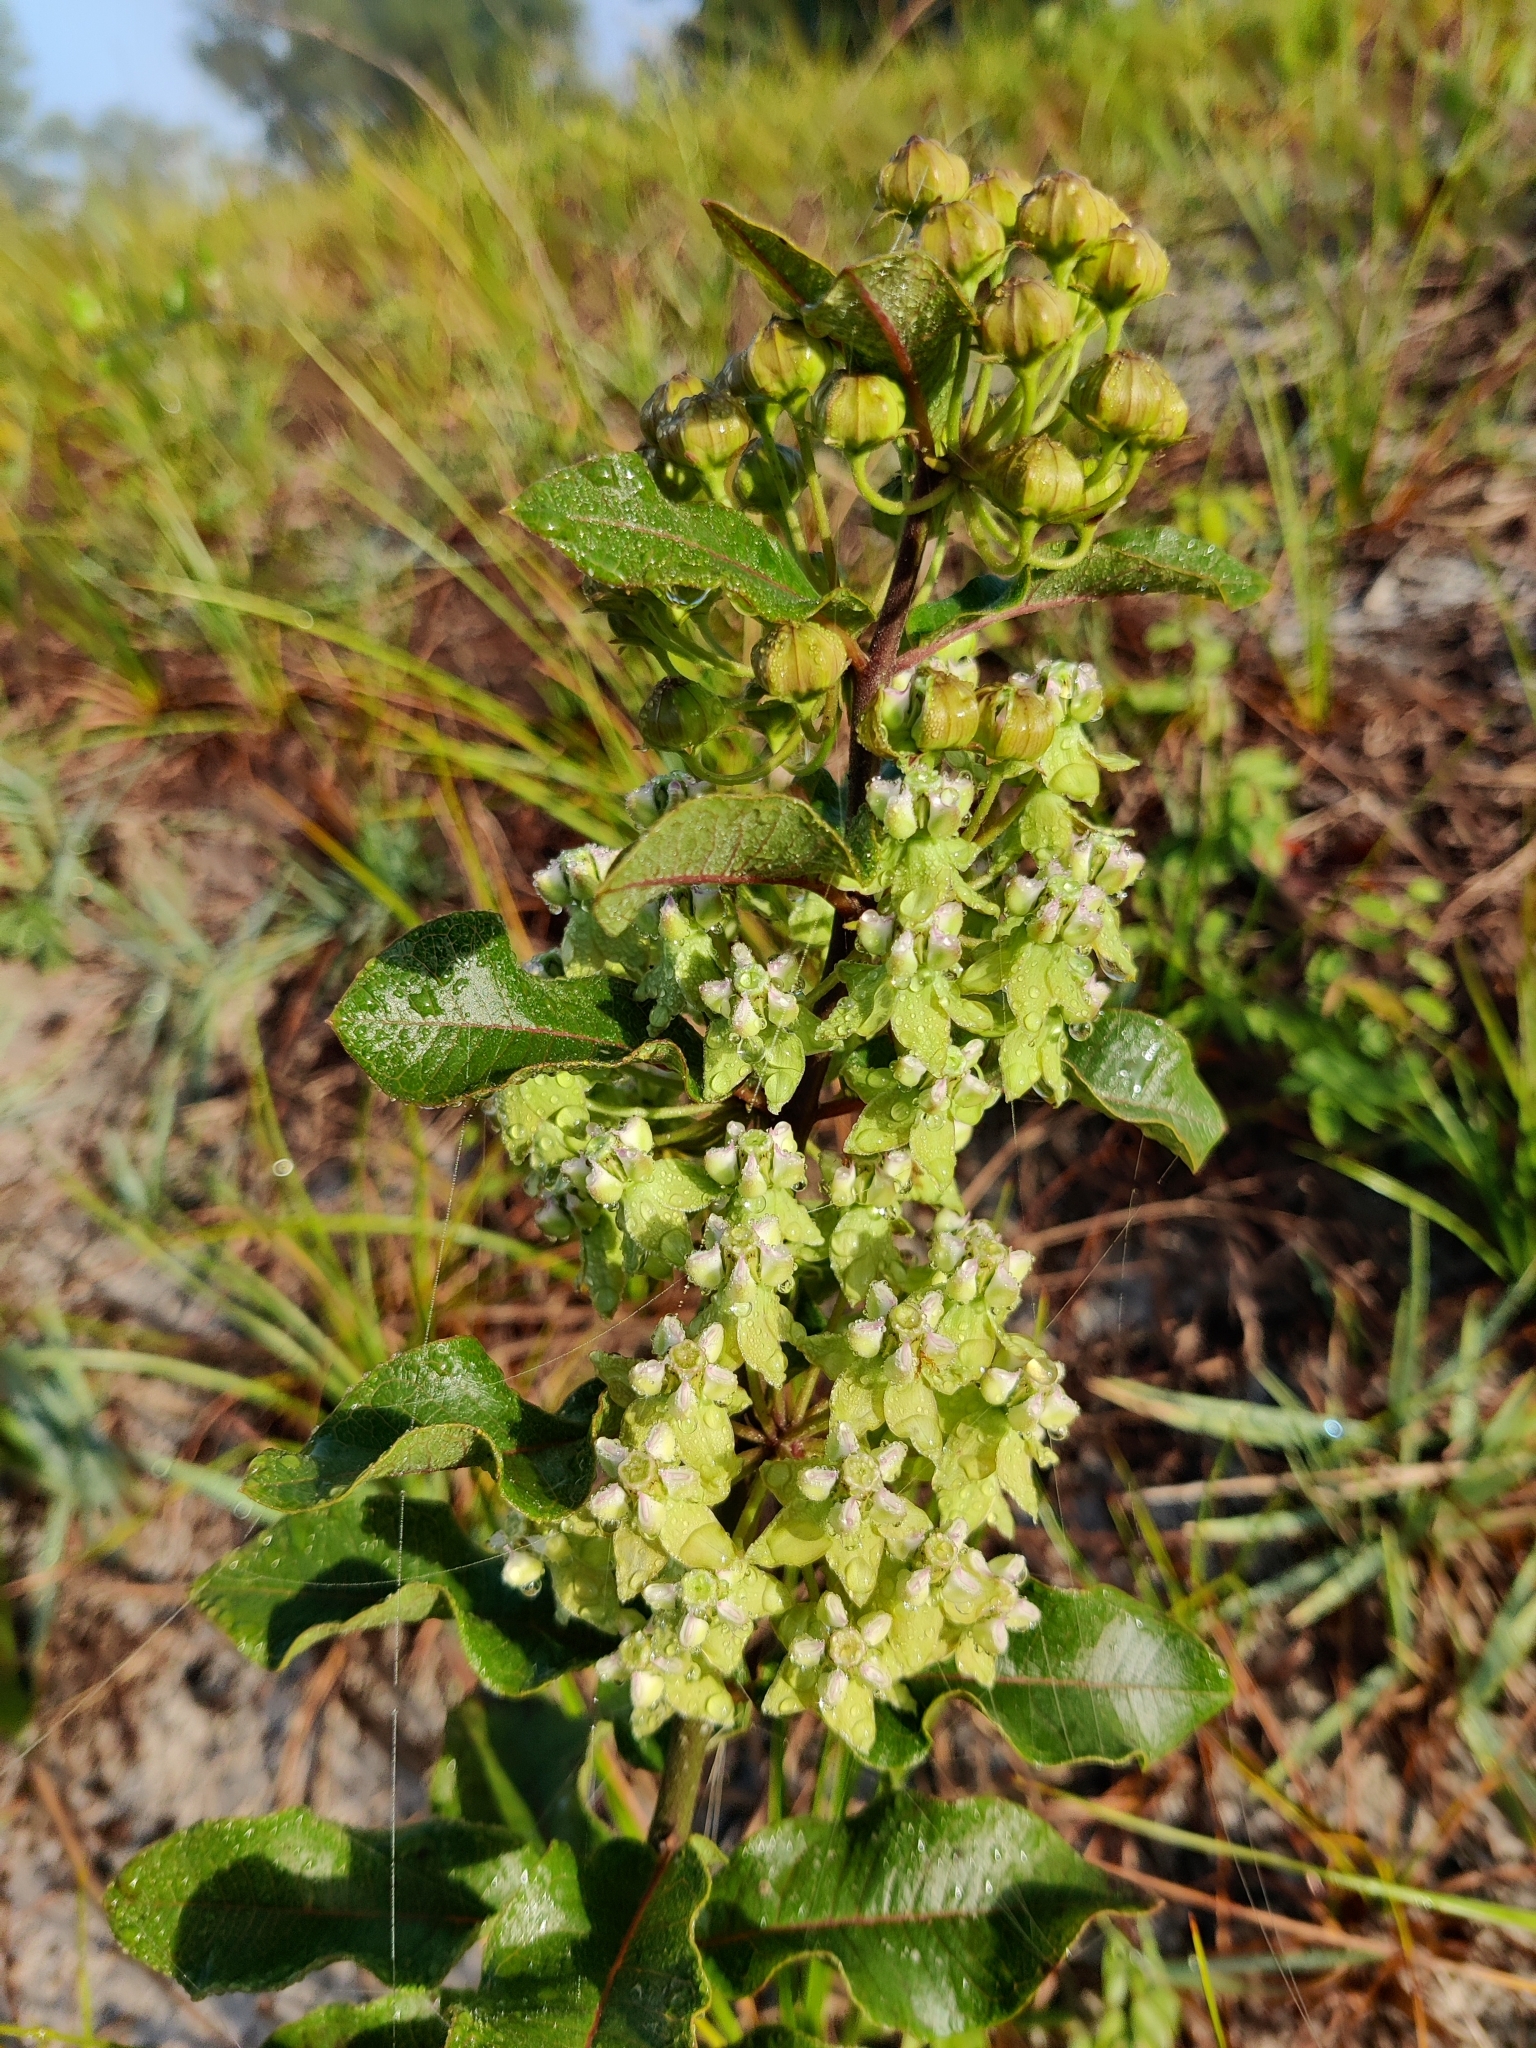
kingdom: Plantae
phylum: Tracheophyta
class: Magnoliopsida
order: Gentianales
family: Apocynaceae
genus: Asclepias
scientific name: Asclepias tomentosa
